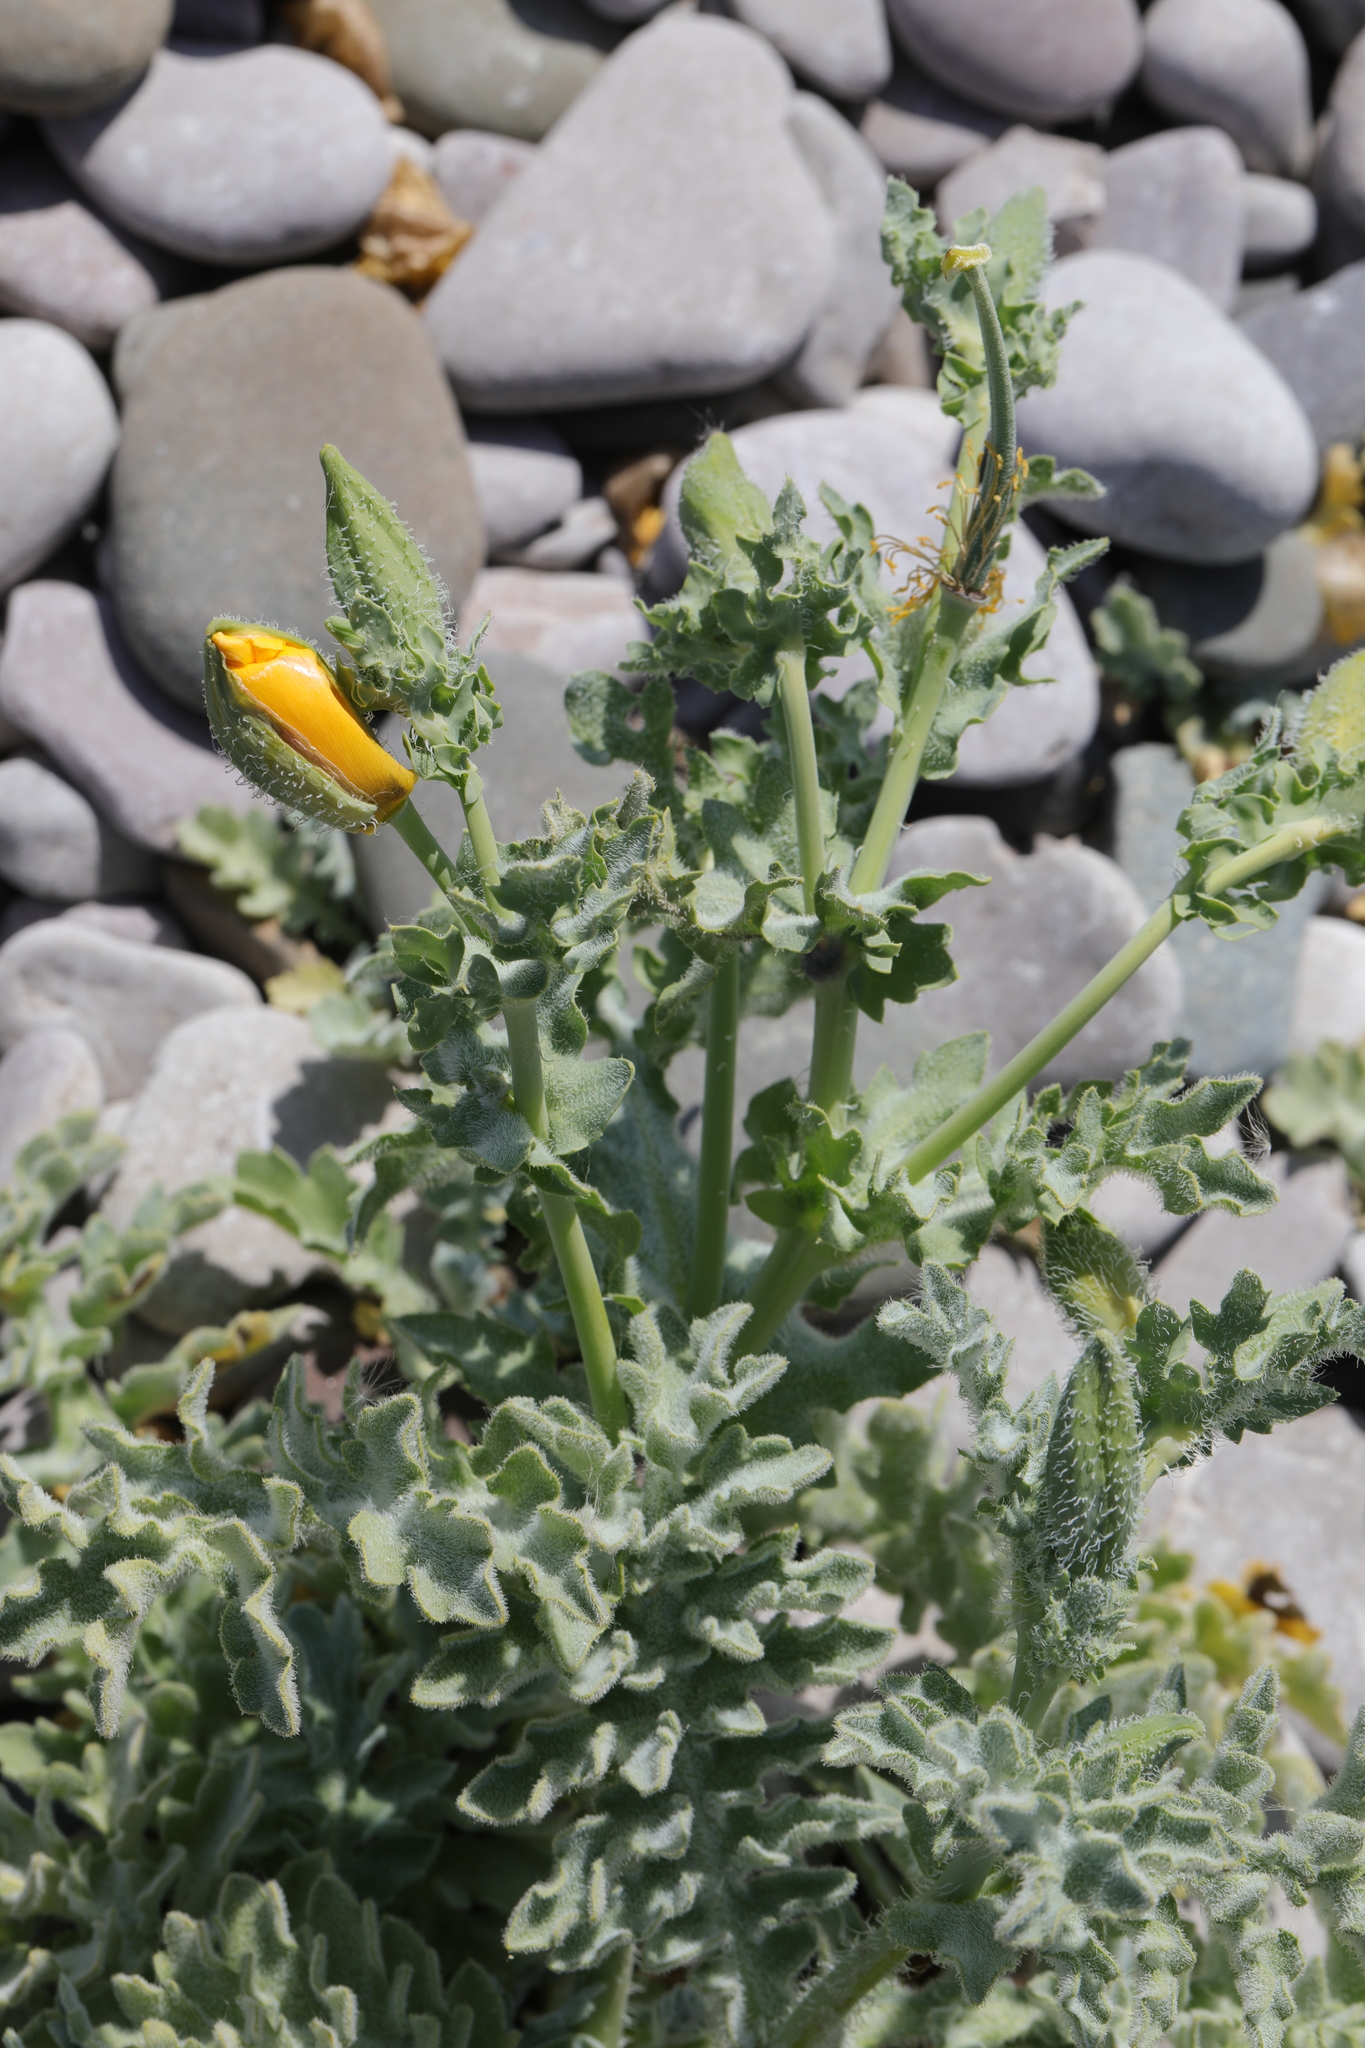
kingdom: Plantae
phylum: Tracheophyta
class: Magnoliopsida
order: Ranunculales
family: Papaveraceae
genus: Glaucium
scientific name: Glaucium flavum
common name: Yellow horned-poppy
